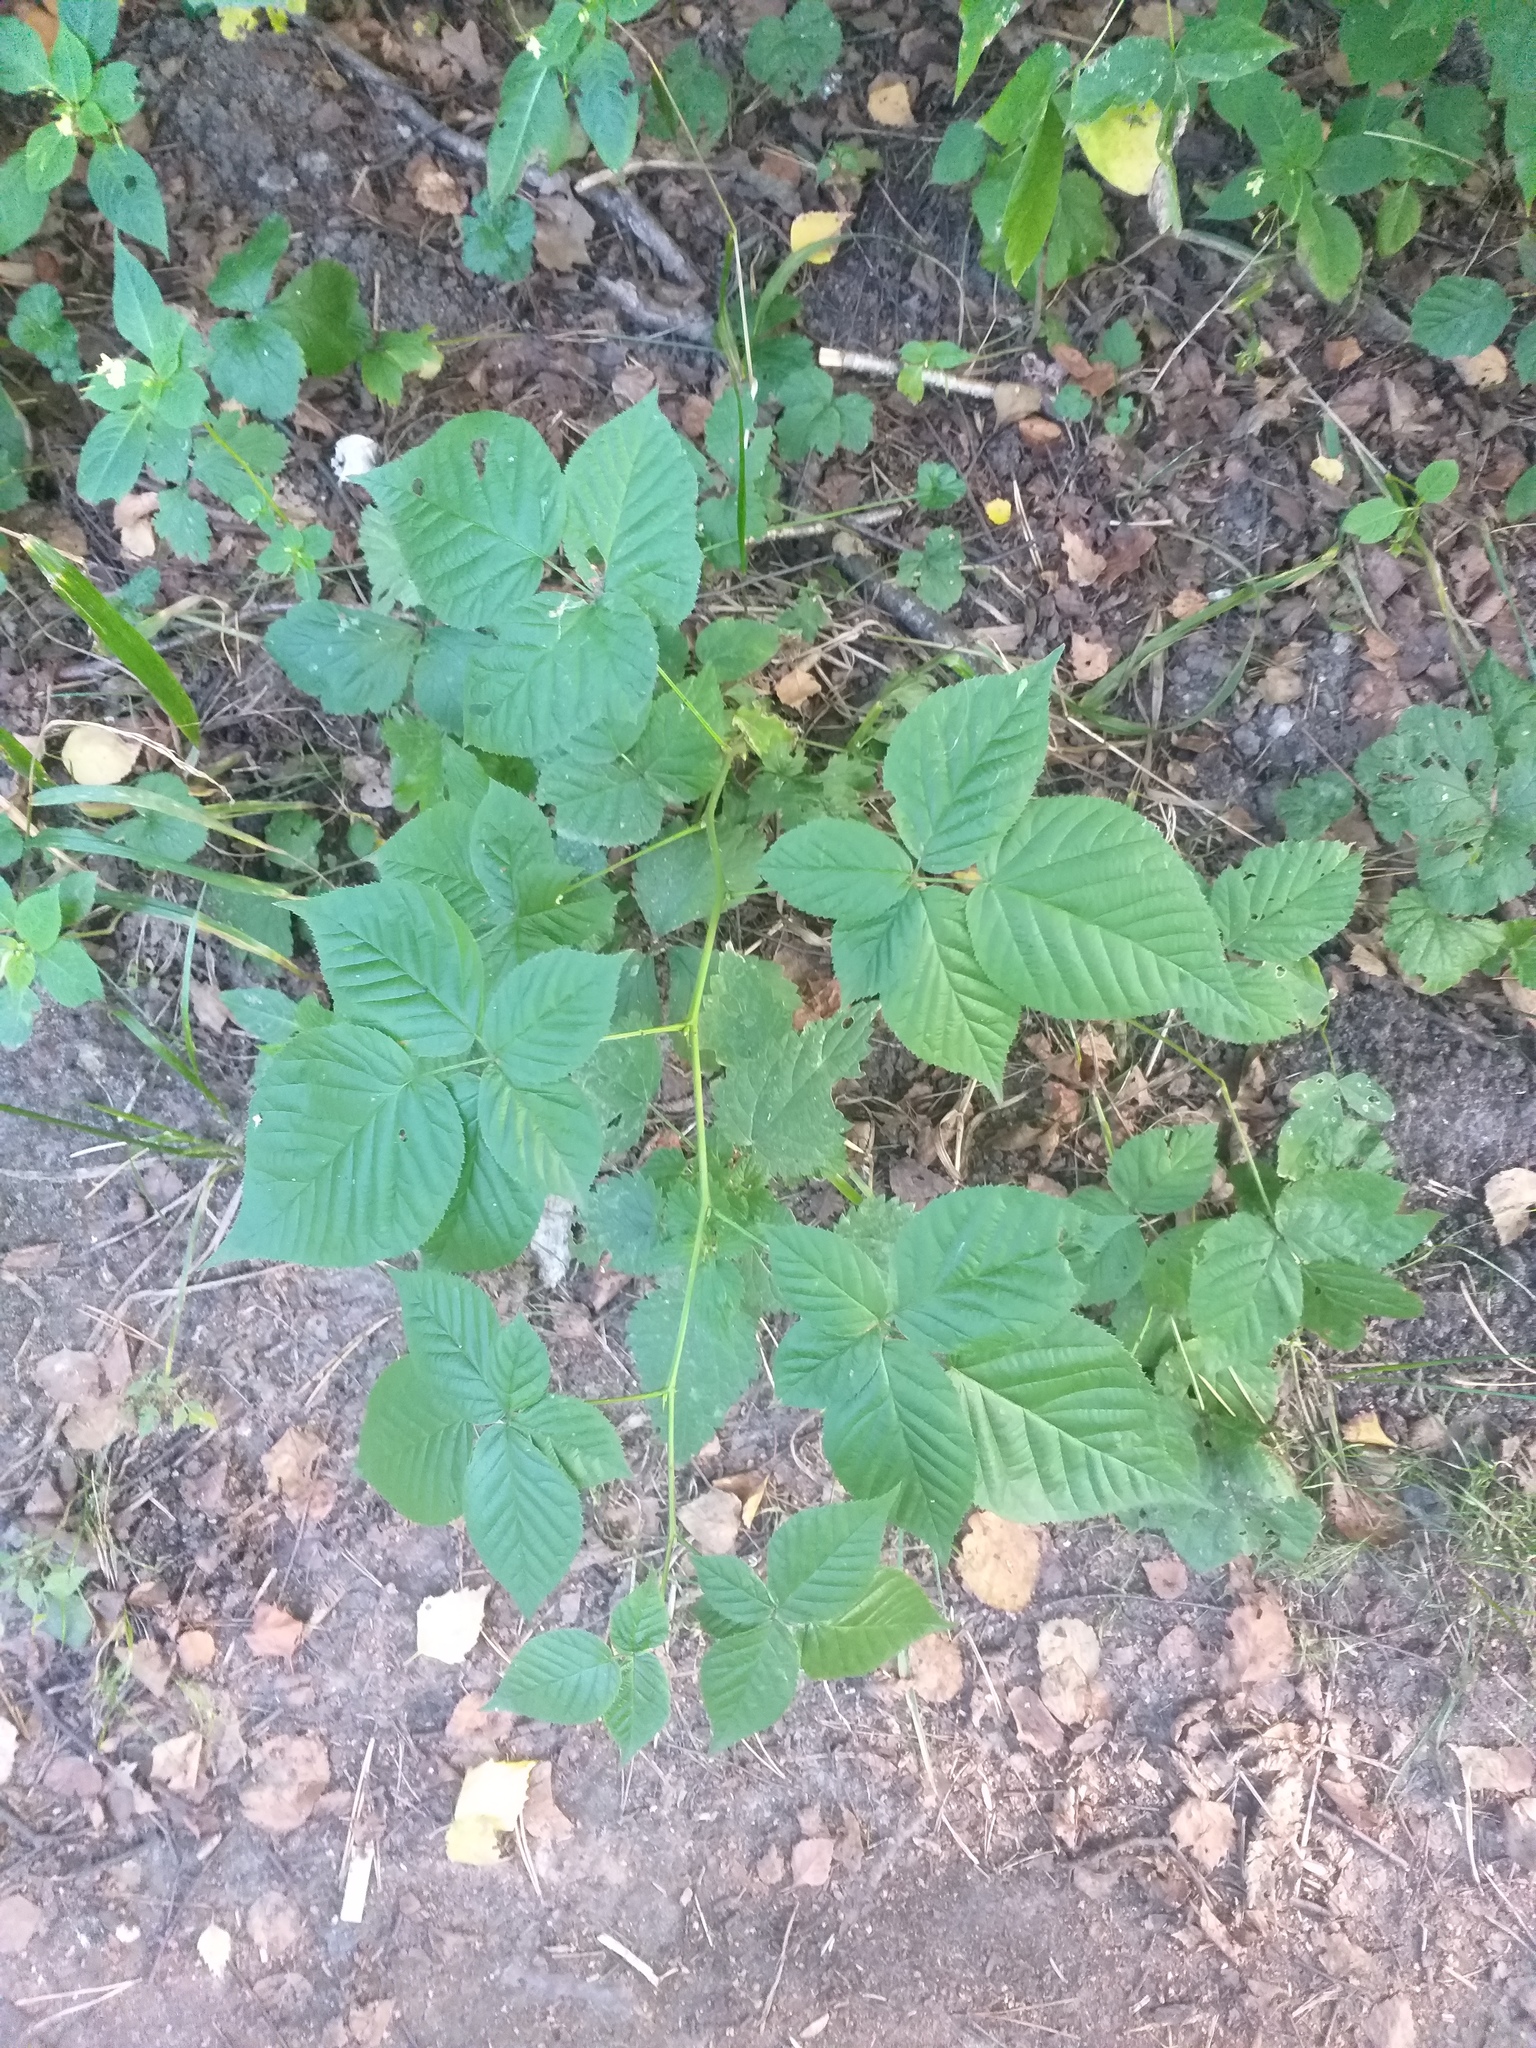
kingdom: Plantae
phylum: Tracheophyta
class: Magnoliopsida
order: Rosales
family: Rosaceae
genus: Rubus
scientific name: Rubus polonicus
